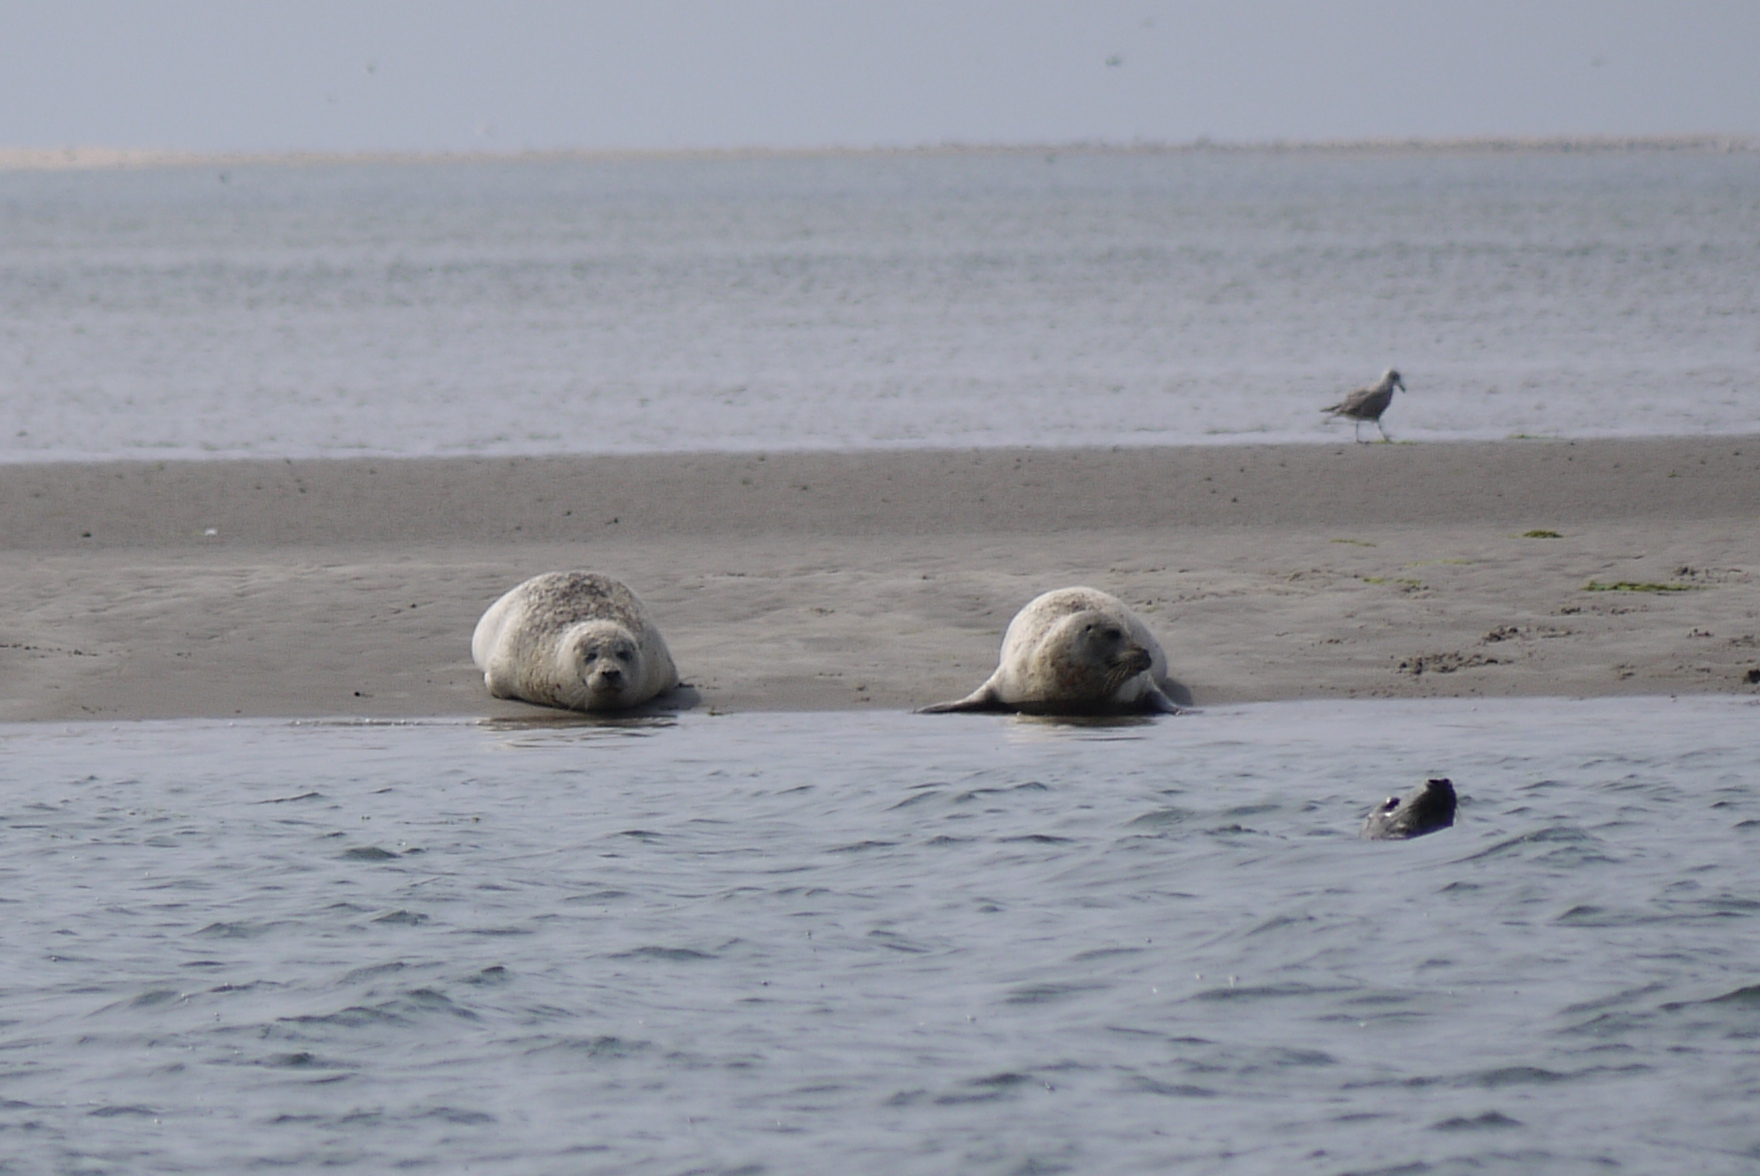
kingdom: Animalia
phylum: Chordata
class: Mammalia
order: Carnivora
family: Phocidae
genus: Phoca
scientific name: Phoca vitulina
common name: Harbor seal
